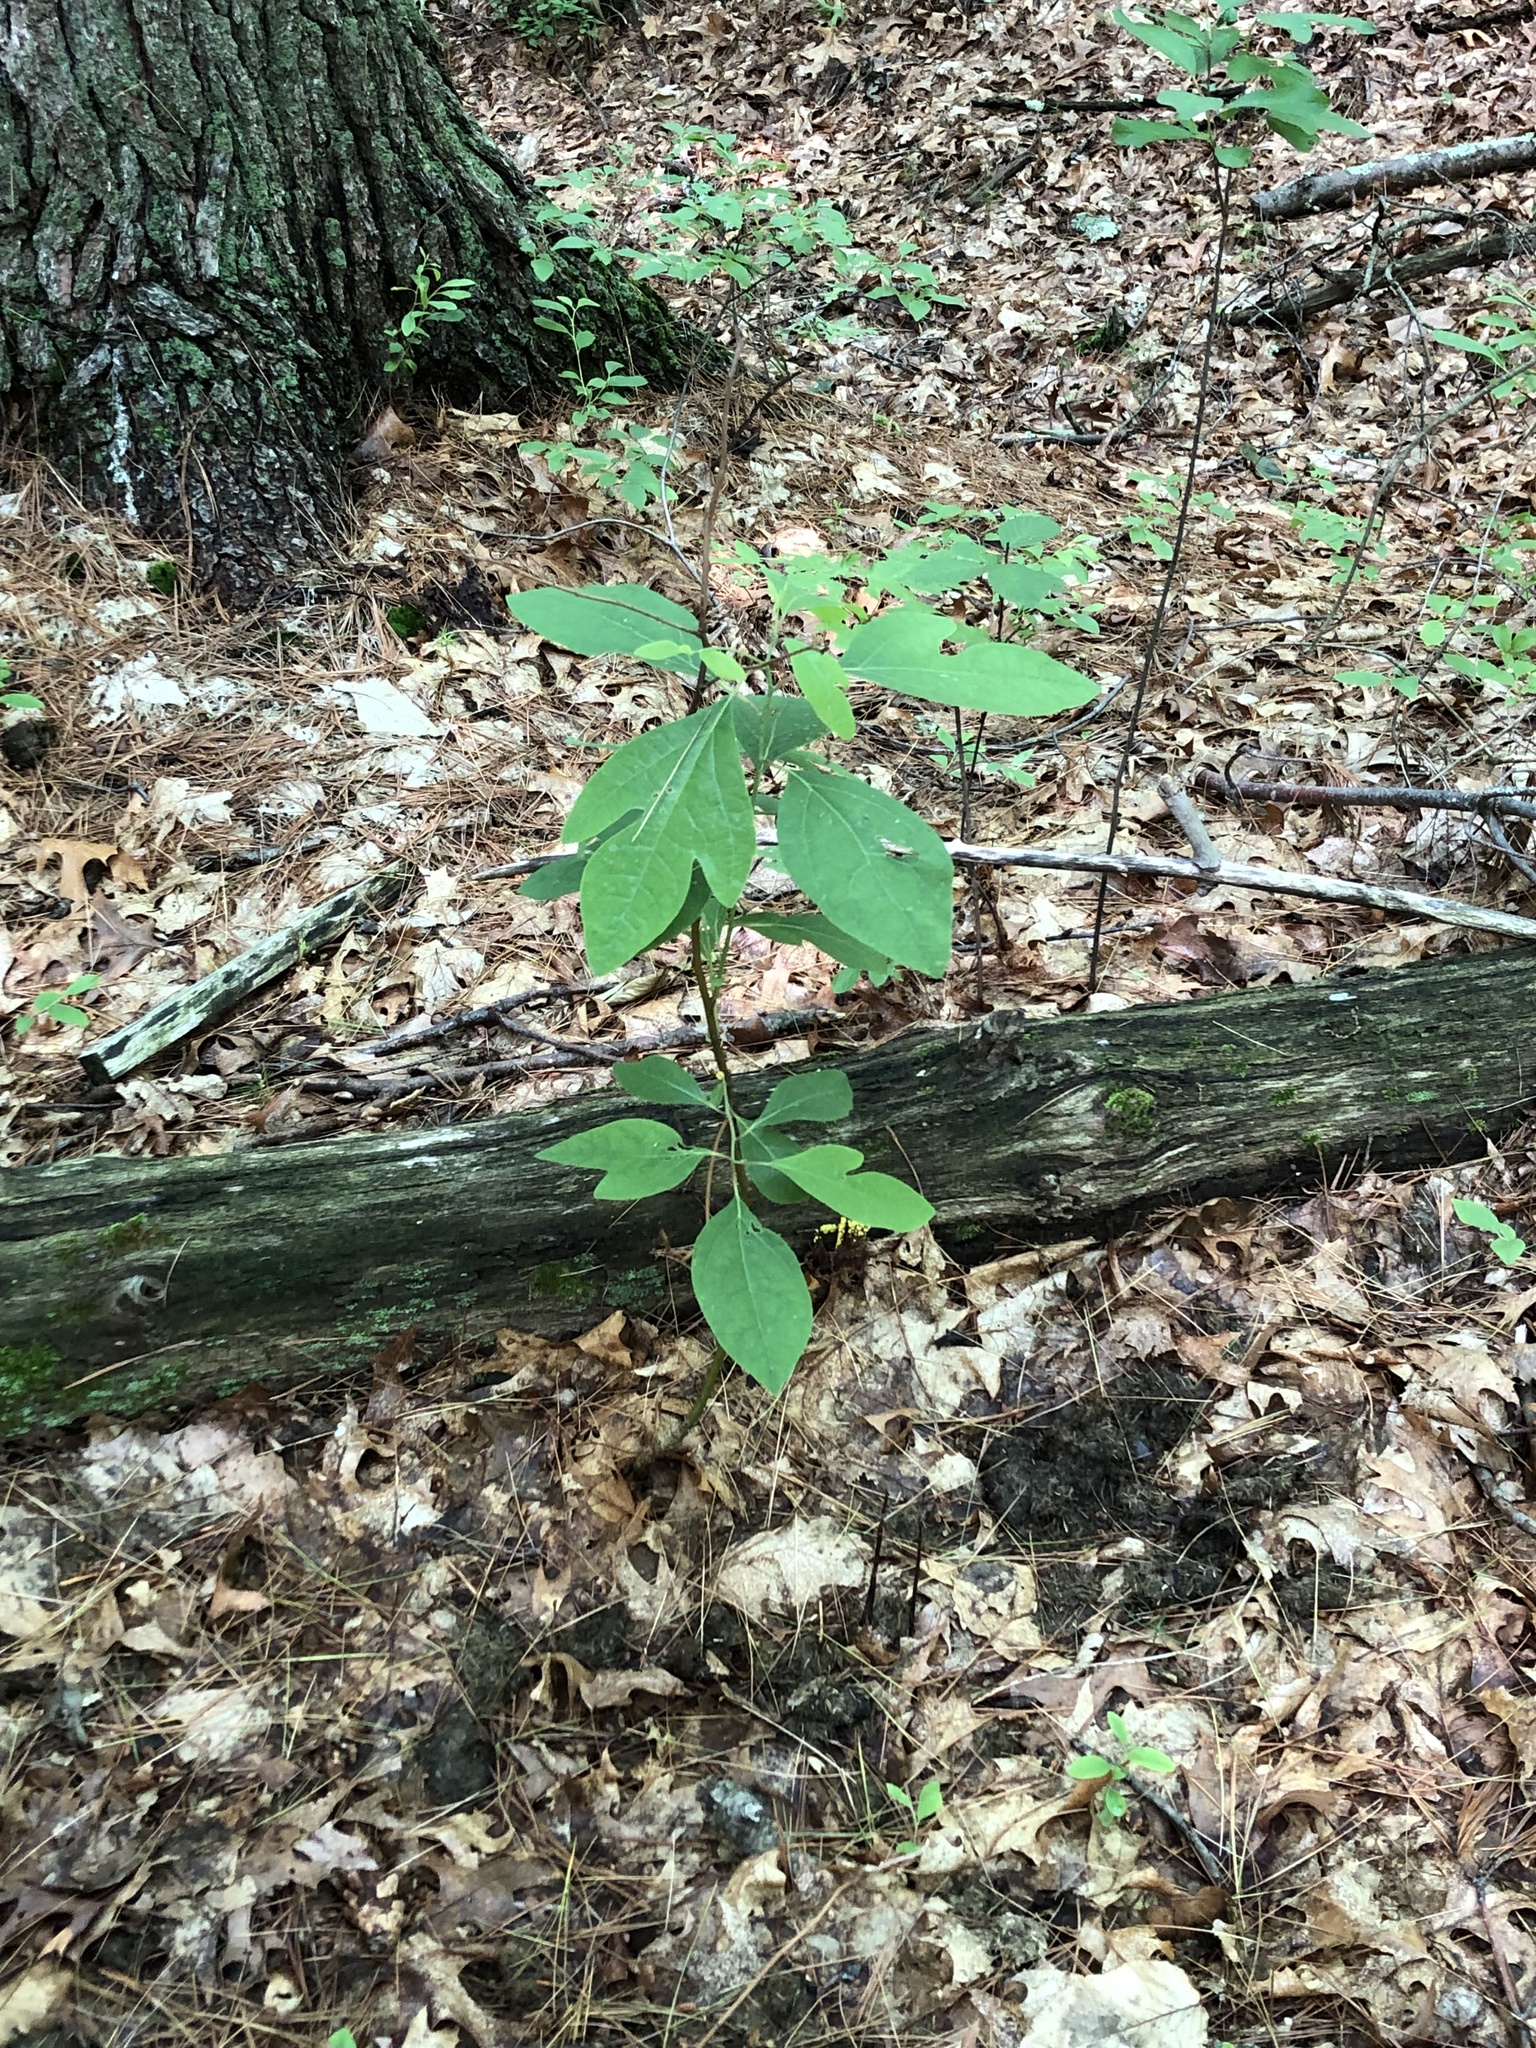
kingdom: Plantae
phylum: Tracheophyta
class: Magnoliopsida
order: Laurales
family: Lauraceae
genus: Sassafras
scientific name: Sassafras albidum
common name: Sassafras
